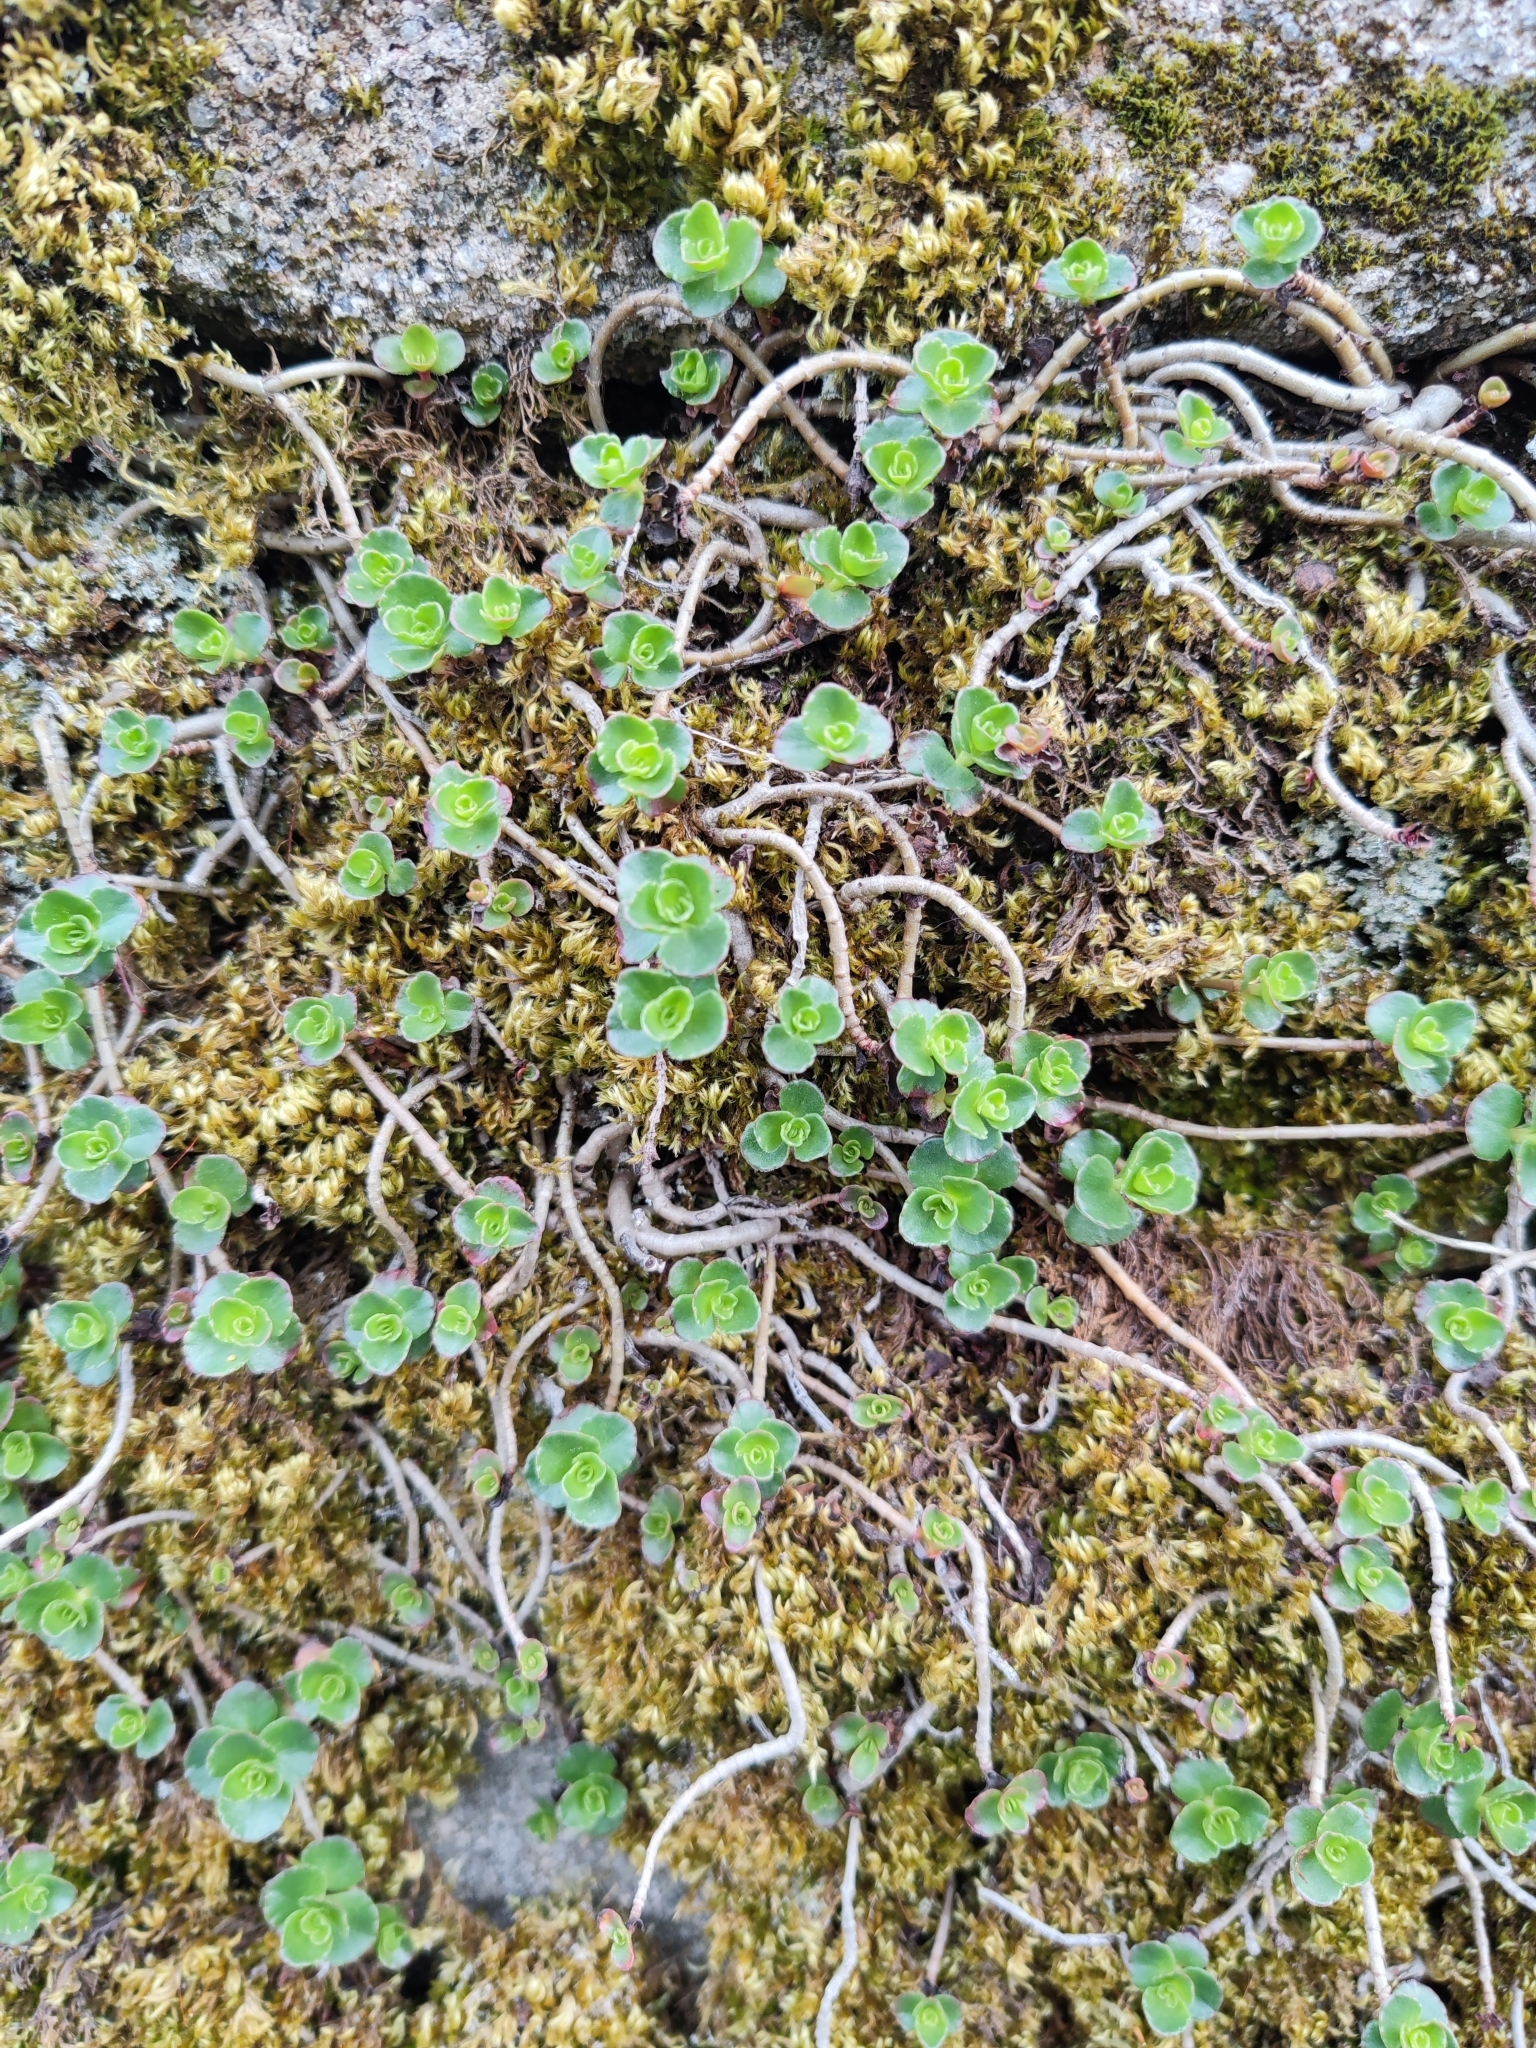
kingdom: Plantae
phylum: Tracheophyta
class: Magnoliopsida
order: Saxifragales
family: Crassulaceae
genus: Phedimus
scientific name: Phedimus spurius
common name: Caucasian stonecrop
